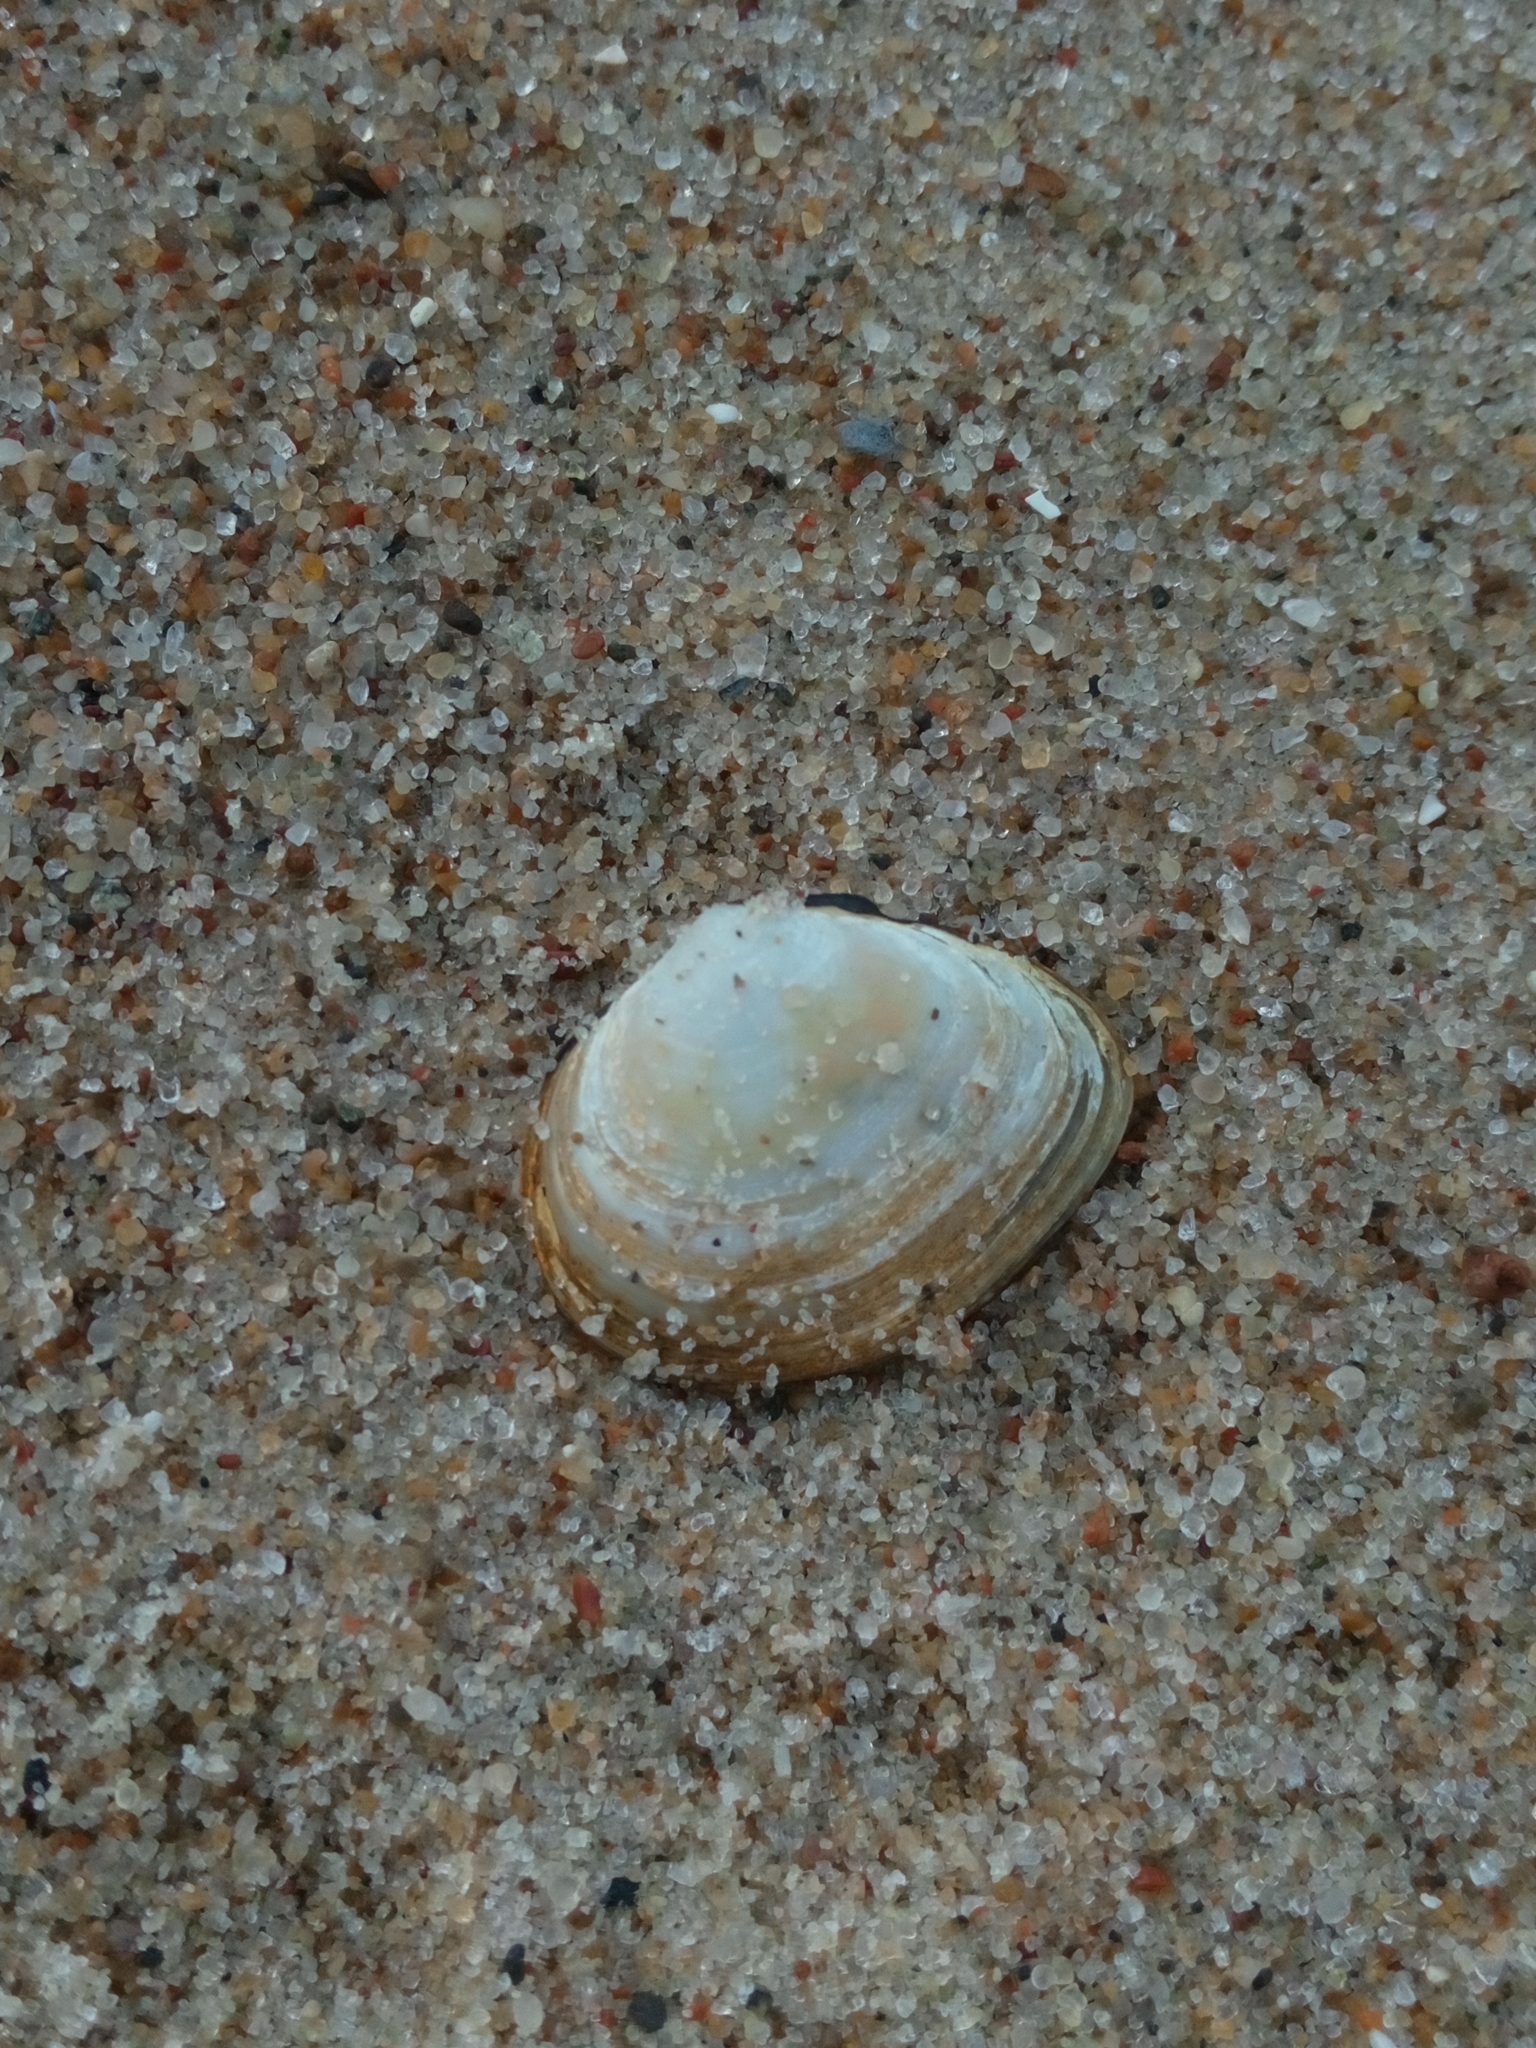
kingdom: Animalia
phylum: Mollusca
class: Bivalvia
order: Cardiida
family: Tellinidae
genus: Macoma
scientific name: Macoma balthica
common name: Baltic tellin
